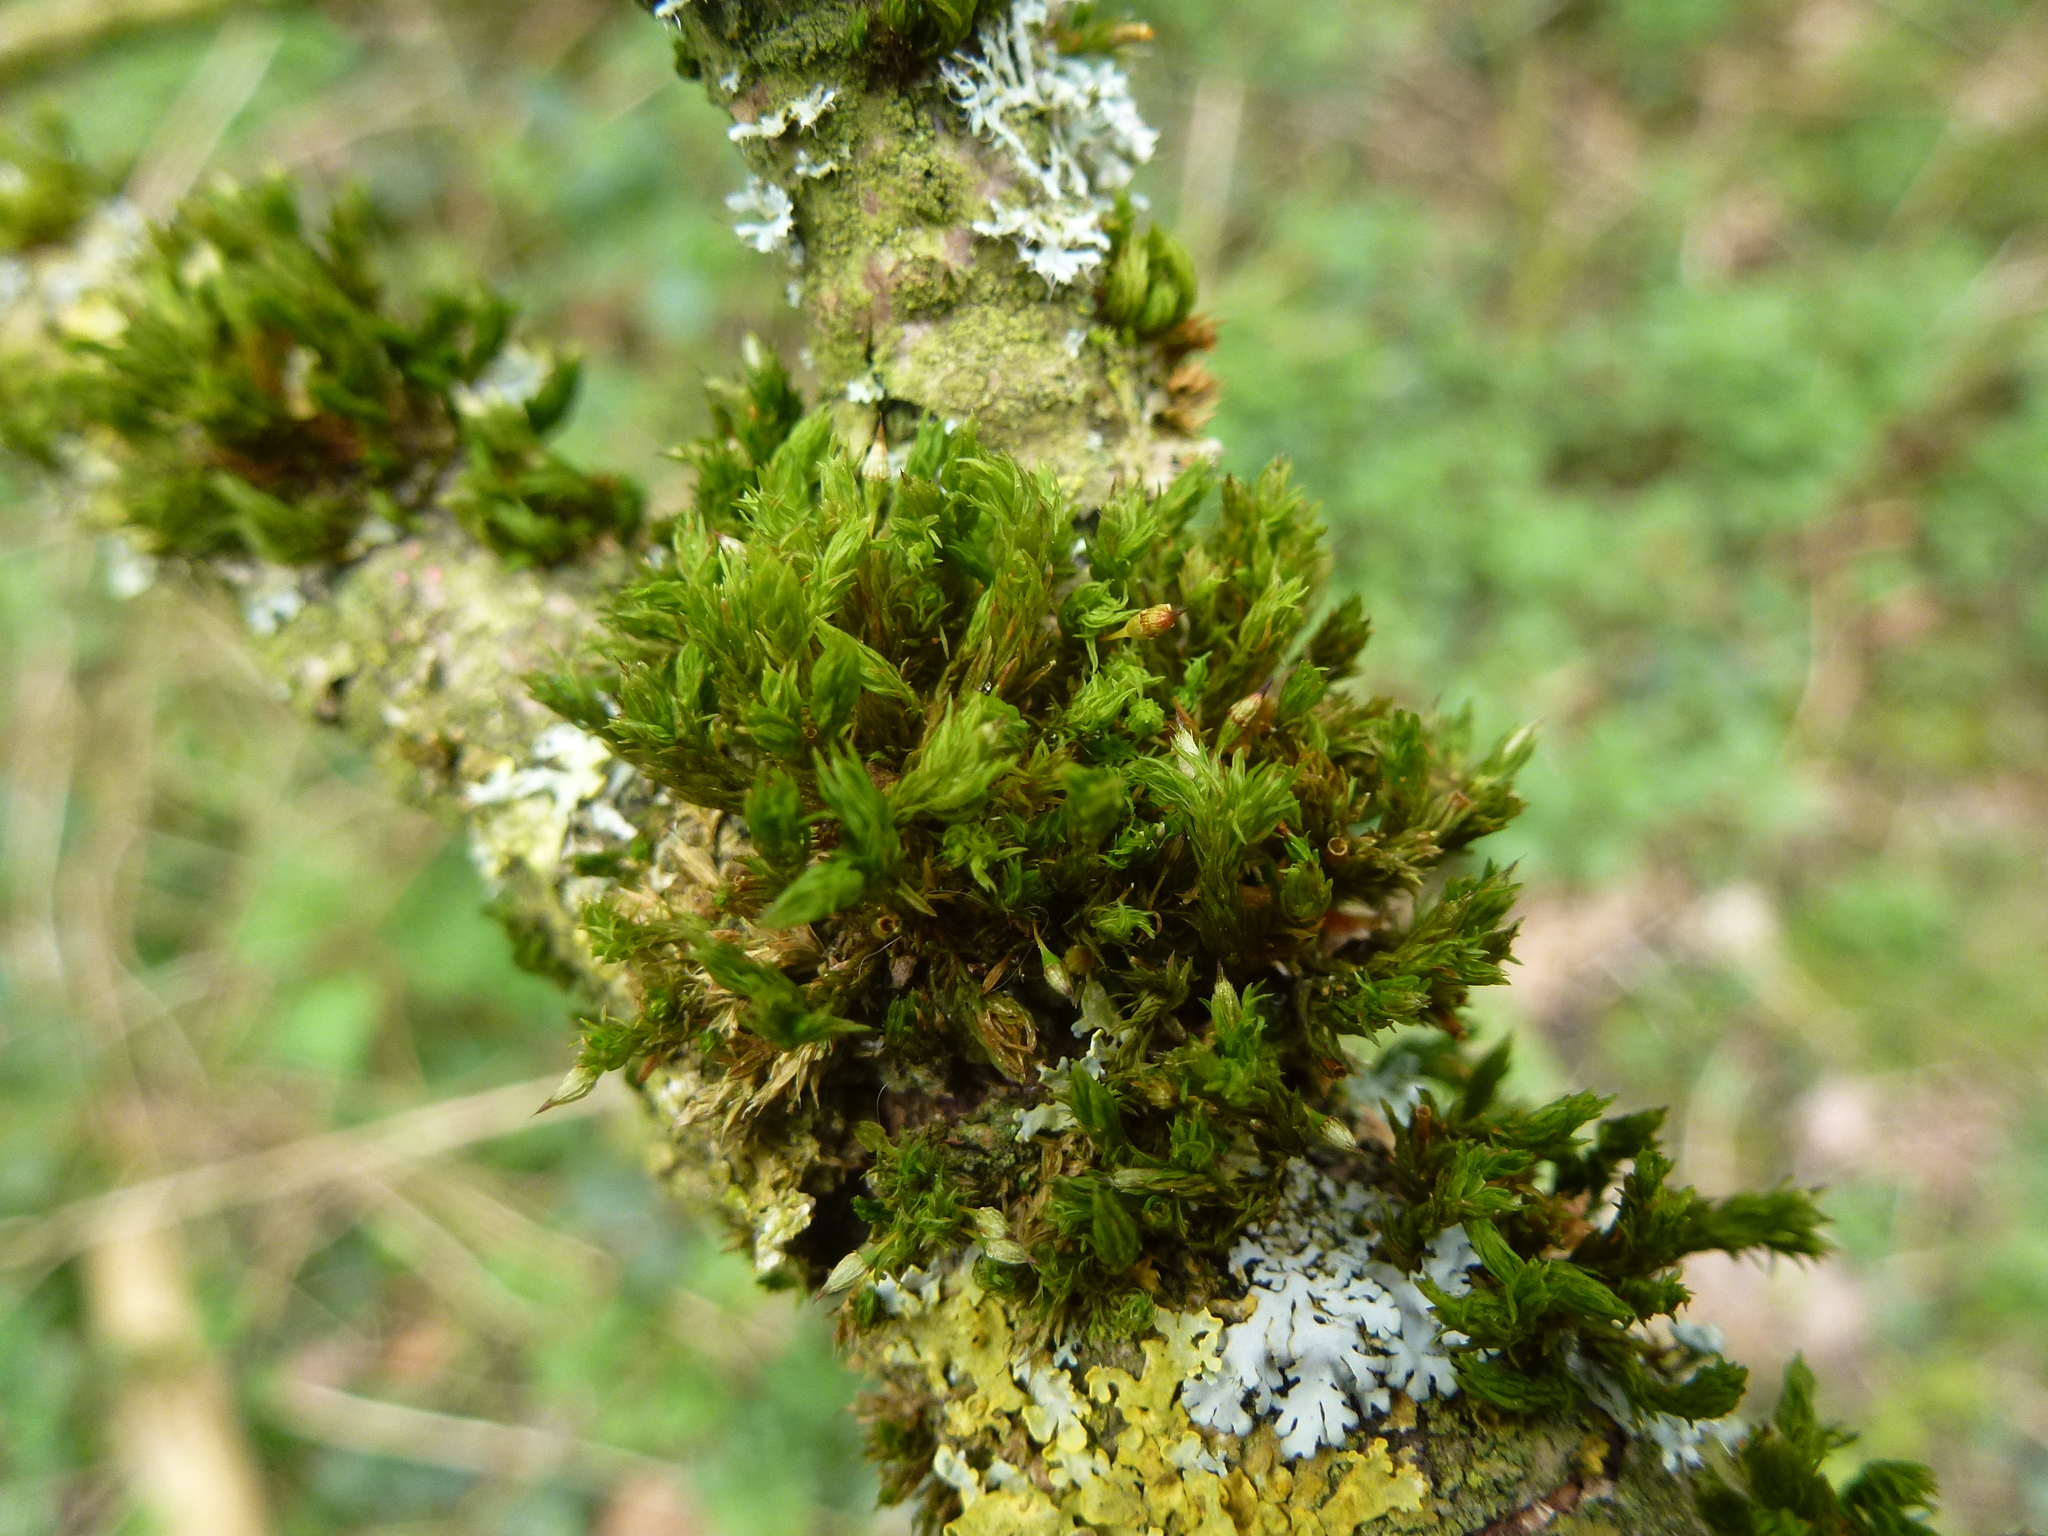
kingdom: Plantae
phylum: Bryophyta
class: Bryopsida
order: Orthotrichales
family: Orthotrichaceae
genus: Orthotrichum
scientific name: Orthotrichum pulchellum
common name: Elegant bristle-moss
